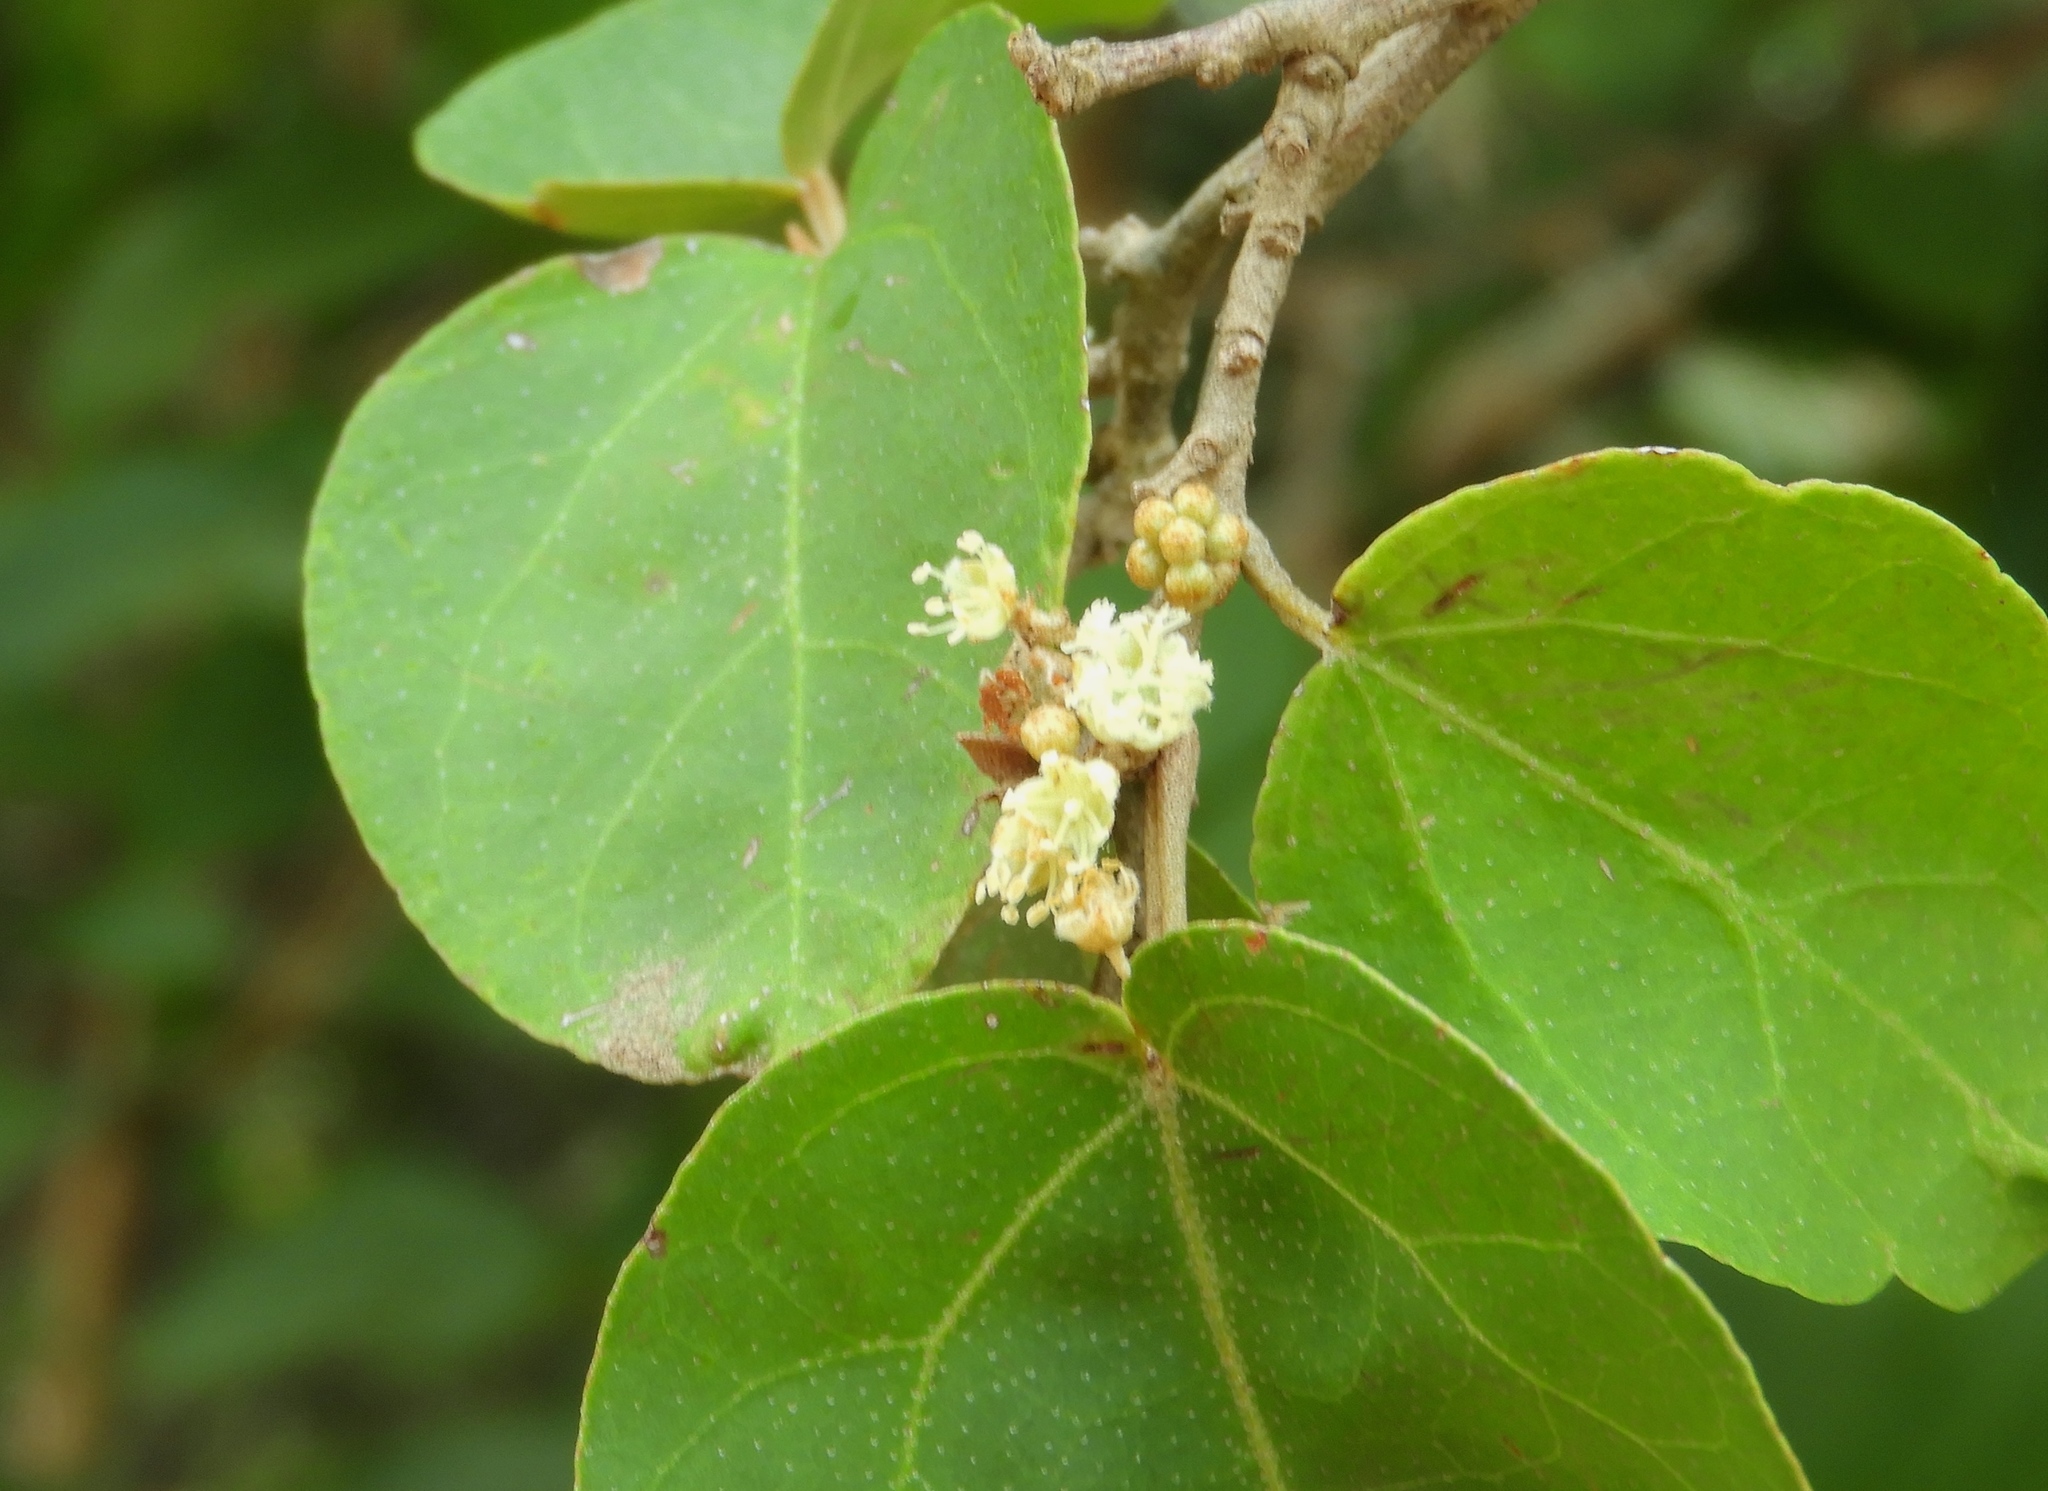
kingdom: Plantae
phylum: Tracheophyta
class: Magnoliopsida
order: Malpighiales
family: Euphorbiaceae
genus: Croton
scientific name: Croton pseudoniveus
